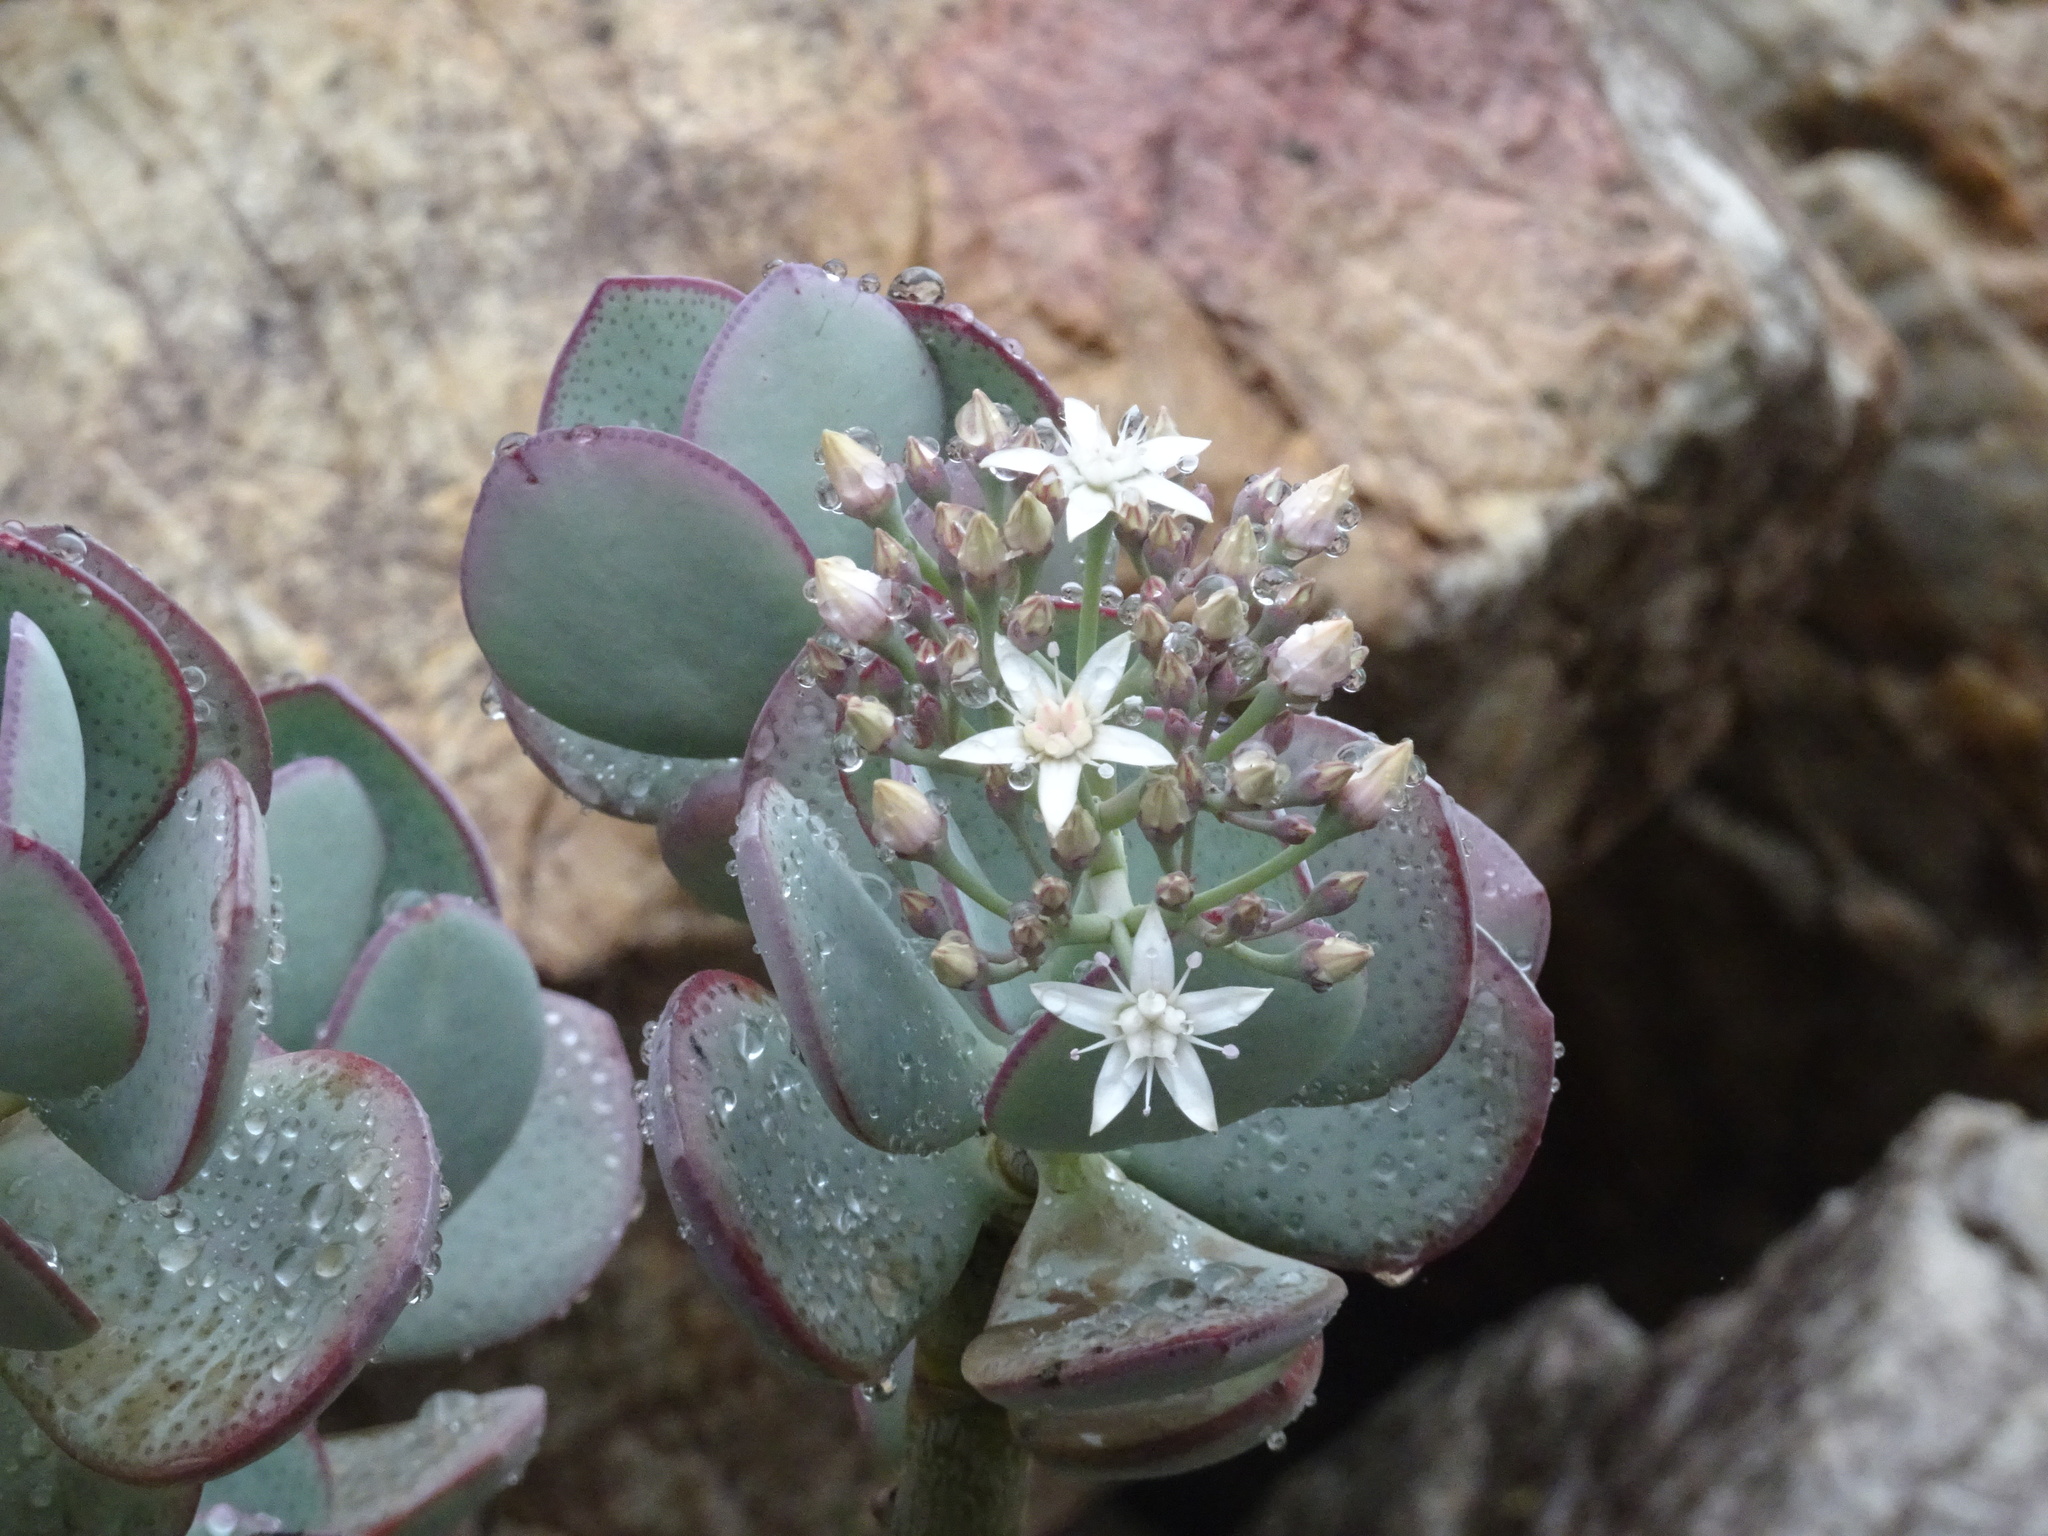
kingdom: Plantae
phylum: Tracheophyta
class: Magnoliopsida
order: Saxifragales
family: Crassulaceae
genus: Crassula
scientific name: Crassula arborescens
